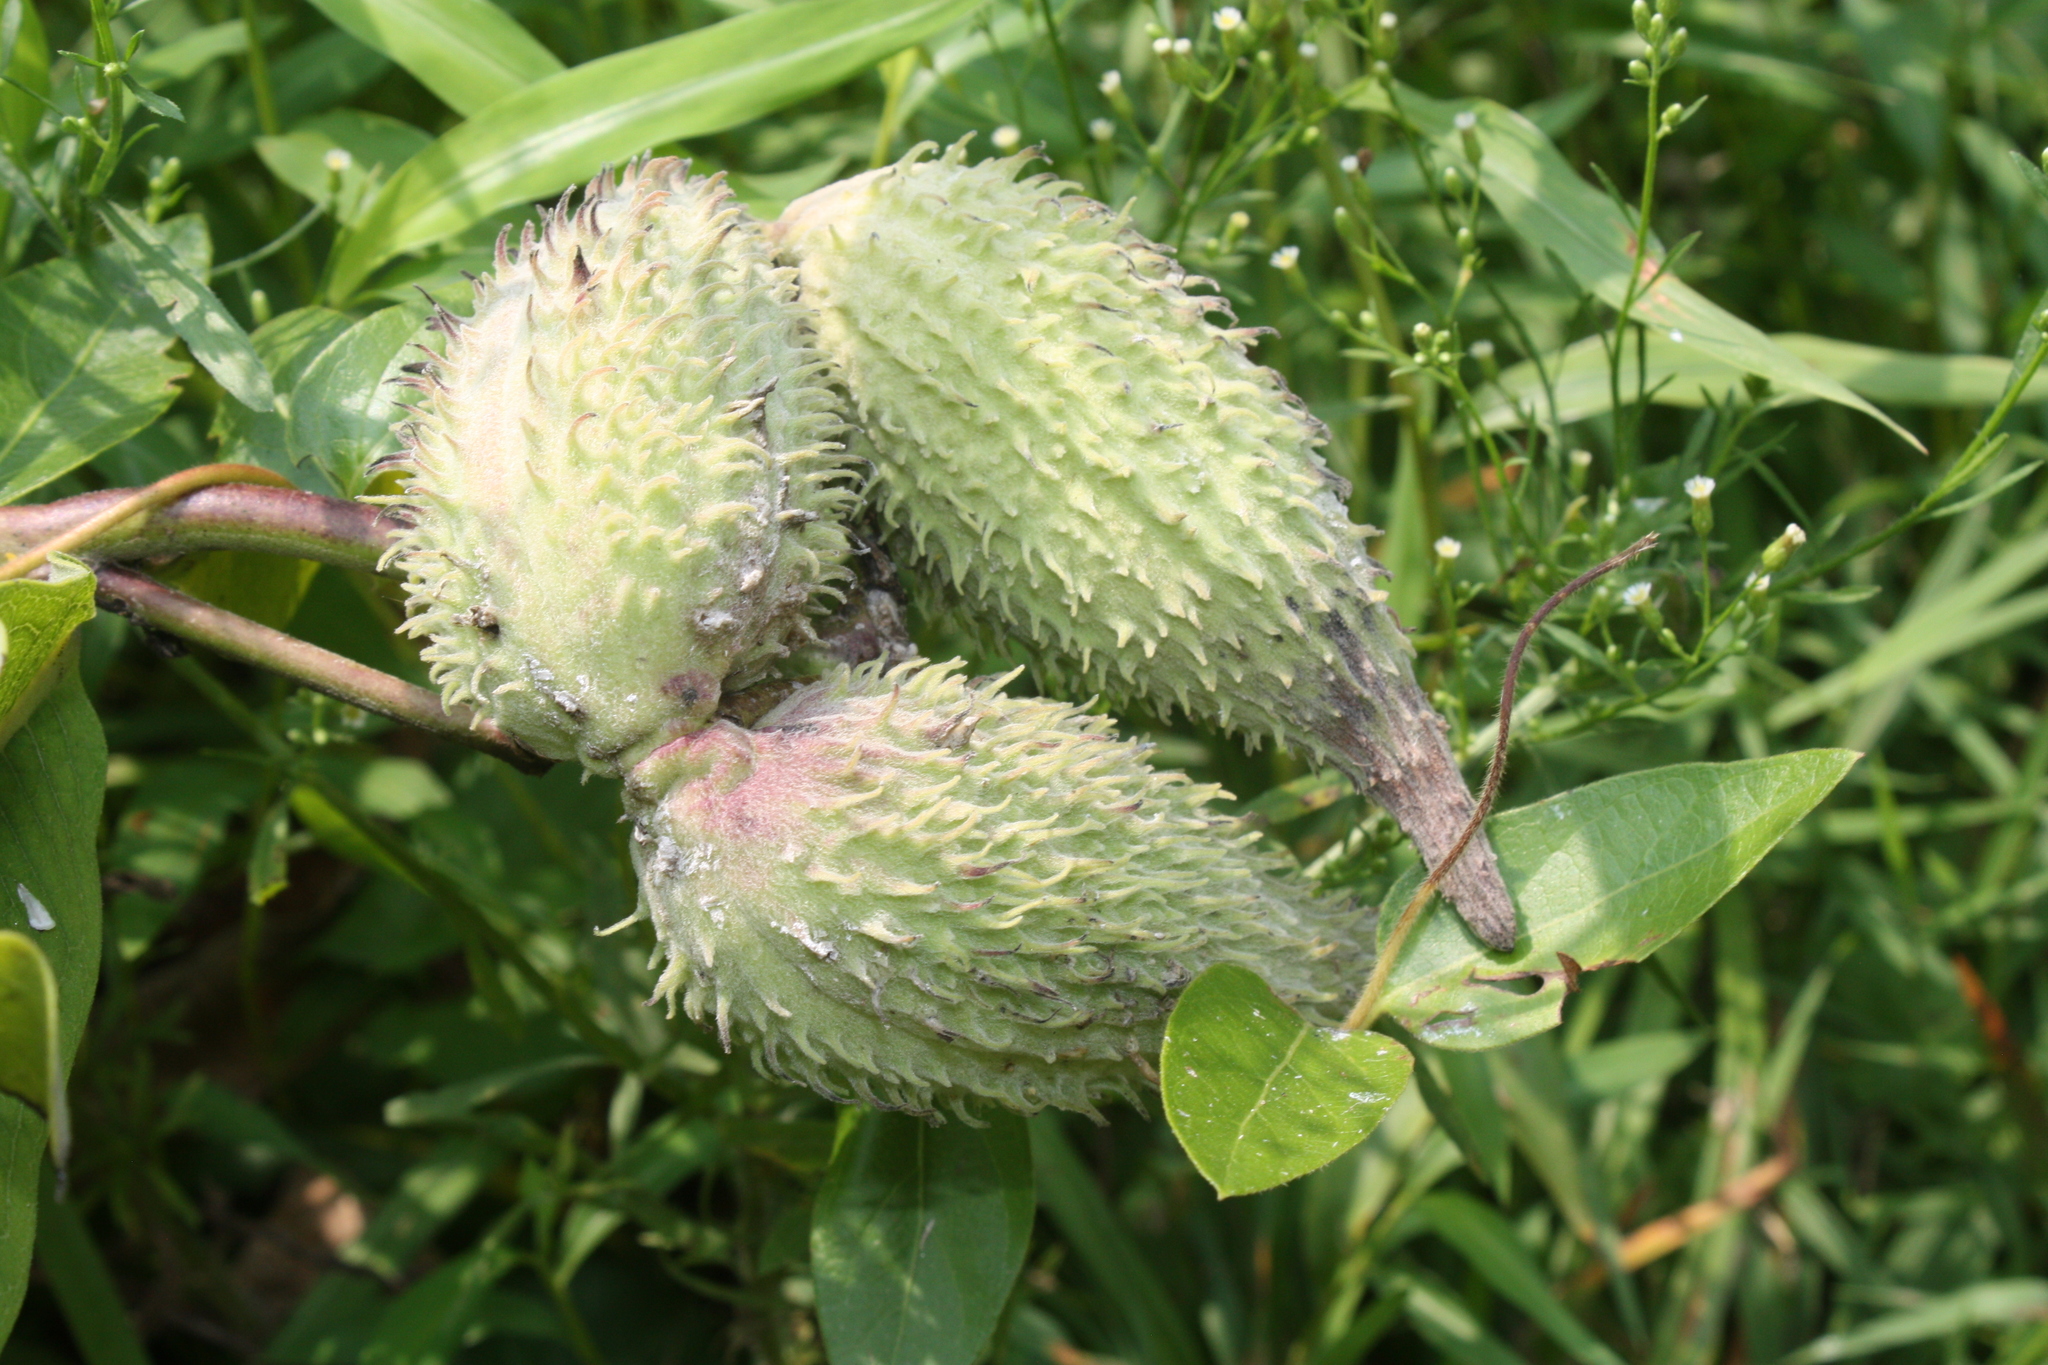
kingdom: Plantae
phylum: Tracheophyta
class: Magnoliopsida
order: Gentianales
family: Apocynaceae
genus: Asclepias
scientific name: Asclepias syriaca
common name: Common milkweed
